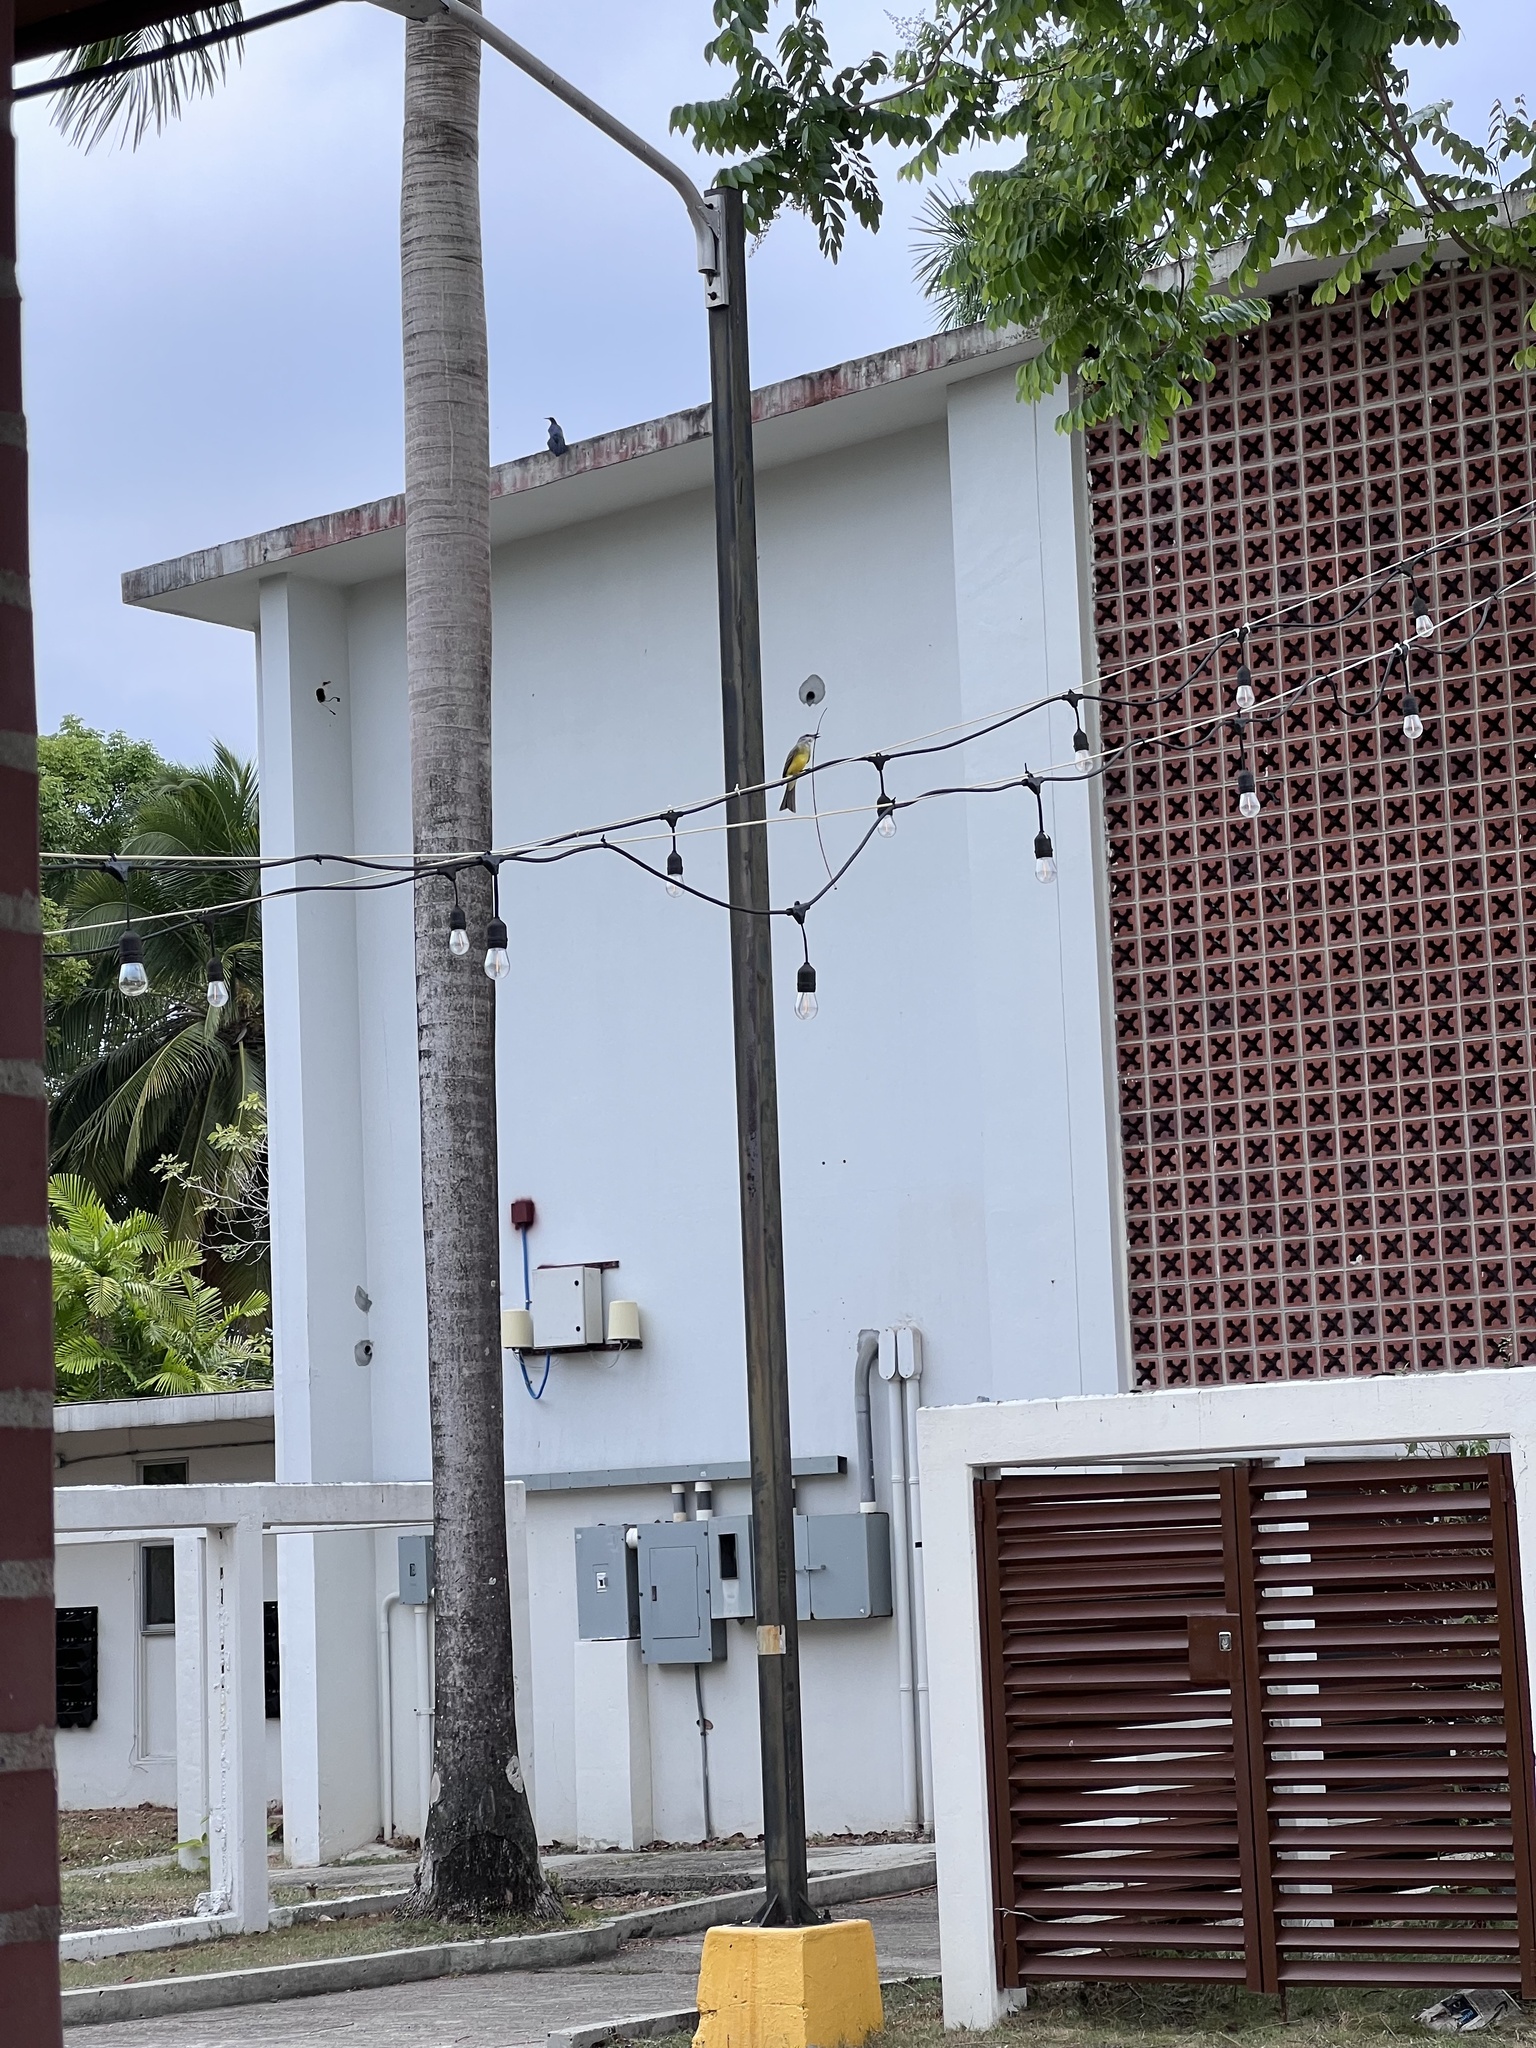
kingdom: Animalia
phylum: Chordata
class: Aves
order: Passeriformes
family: Tyrannidae
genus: Tyrannus
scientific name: Tyrannus melancholicus
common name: Tropical kingbird
